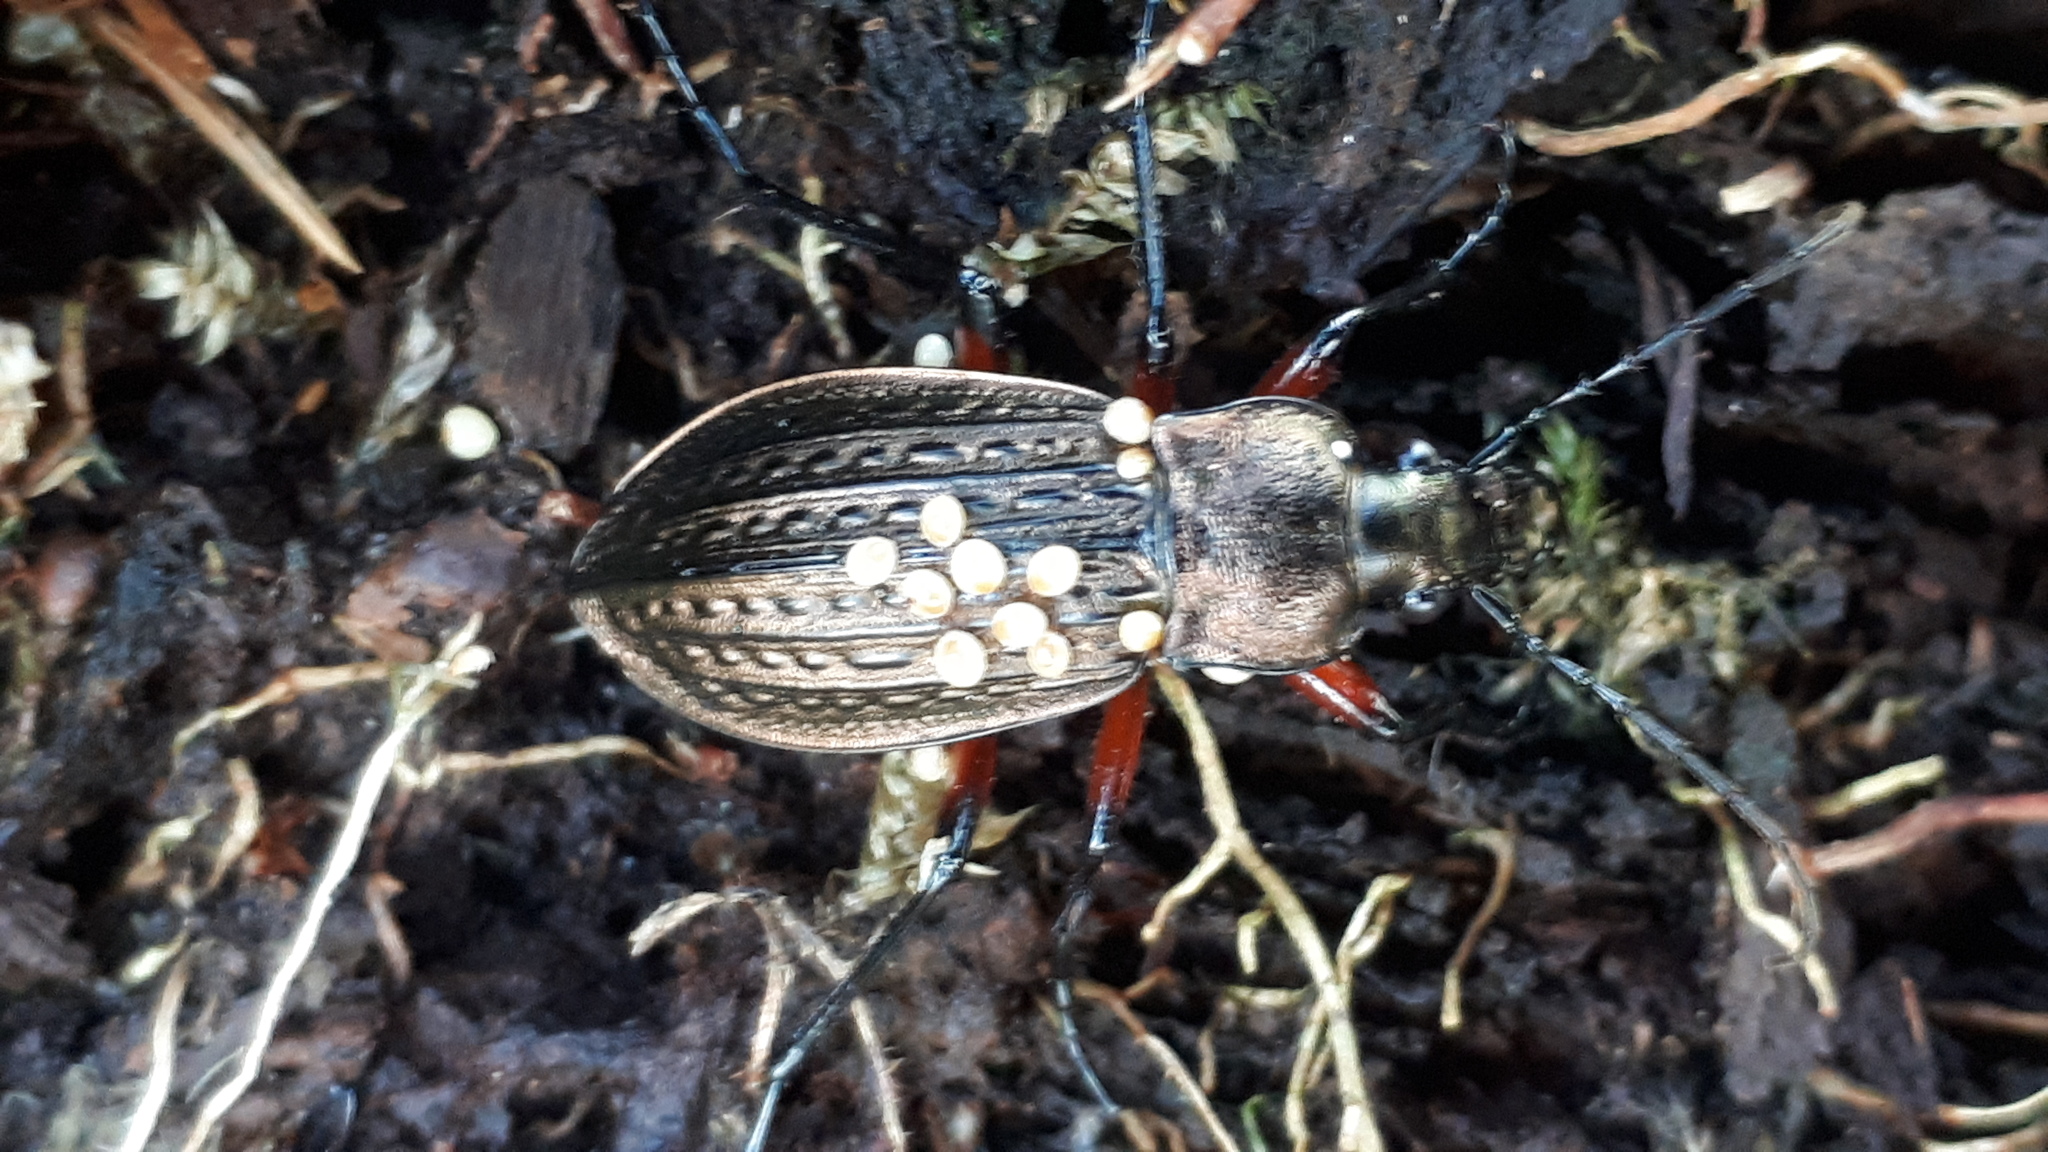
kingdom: Animalia
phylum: Arthropoda
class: Insecta
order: Coleoptera
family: Carabidae
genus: Carabus
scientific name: Carabus granulatus
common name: Granulate ground beetle
